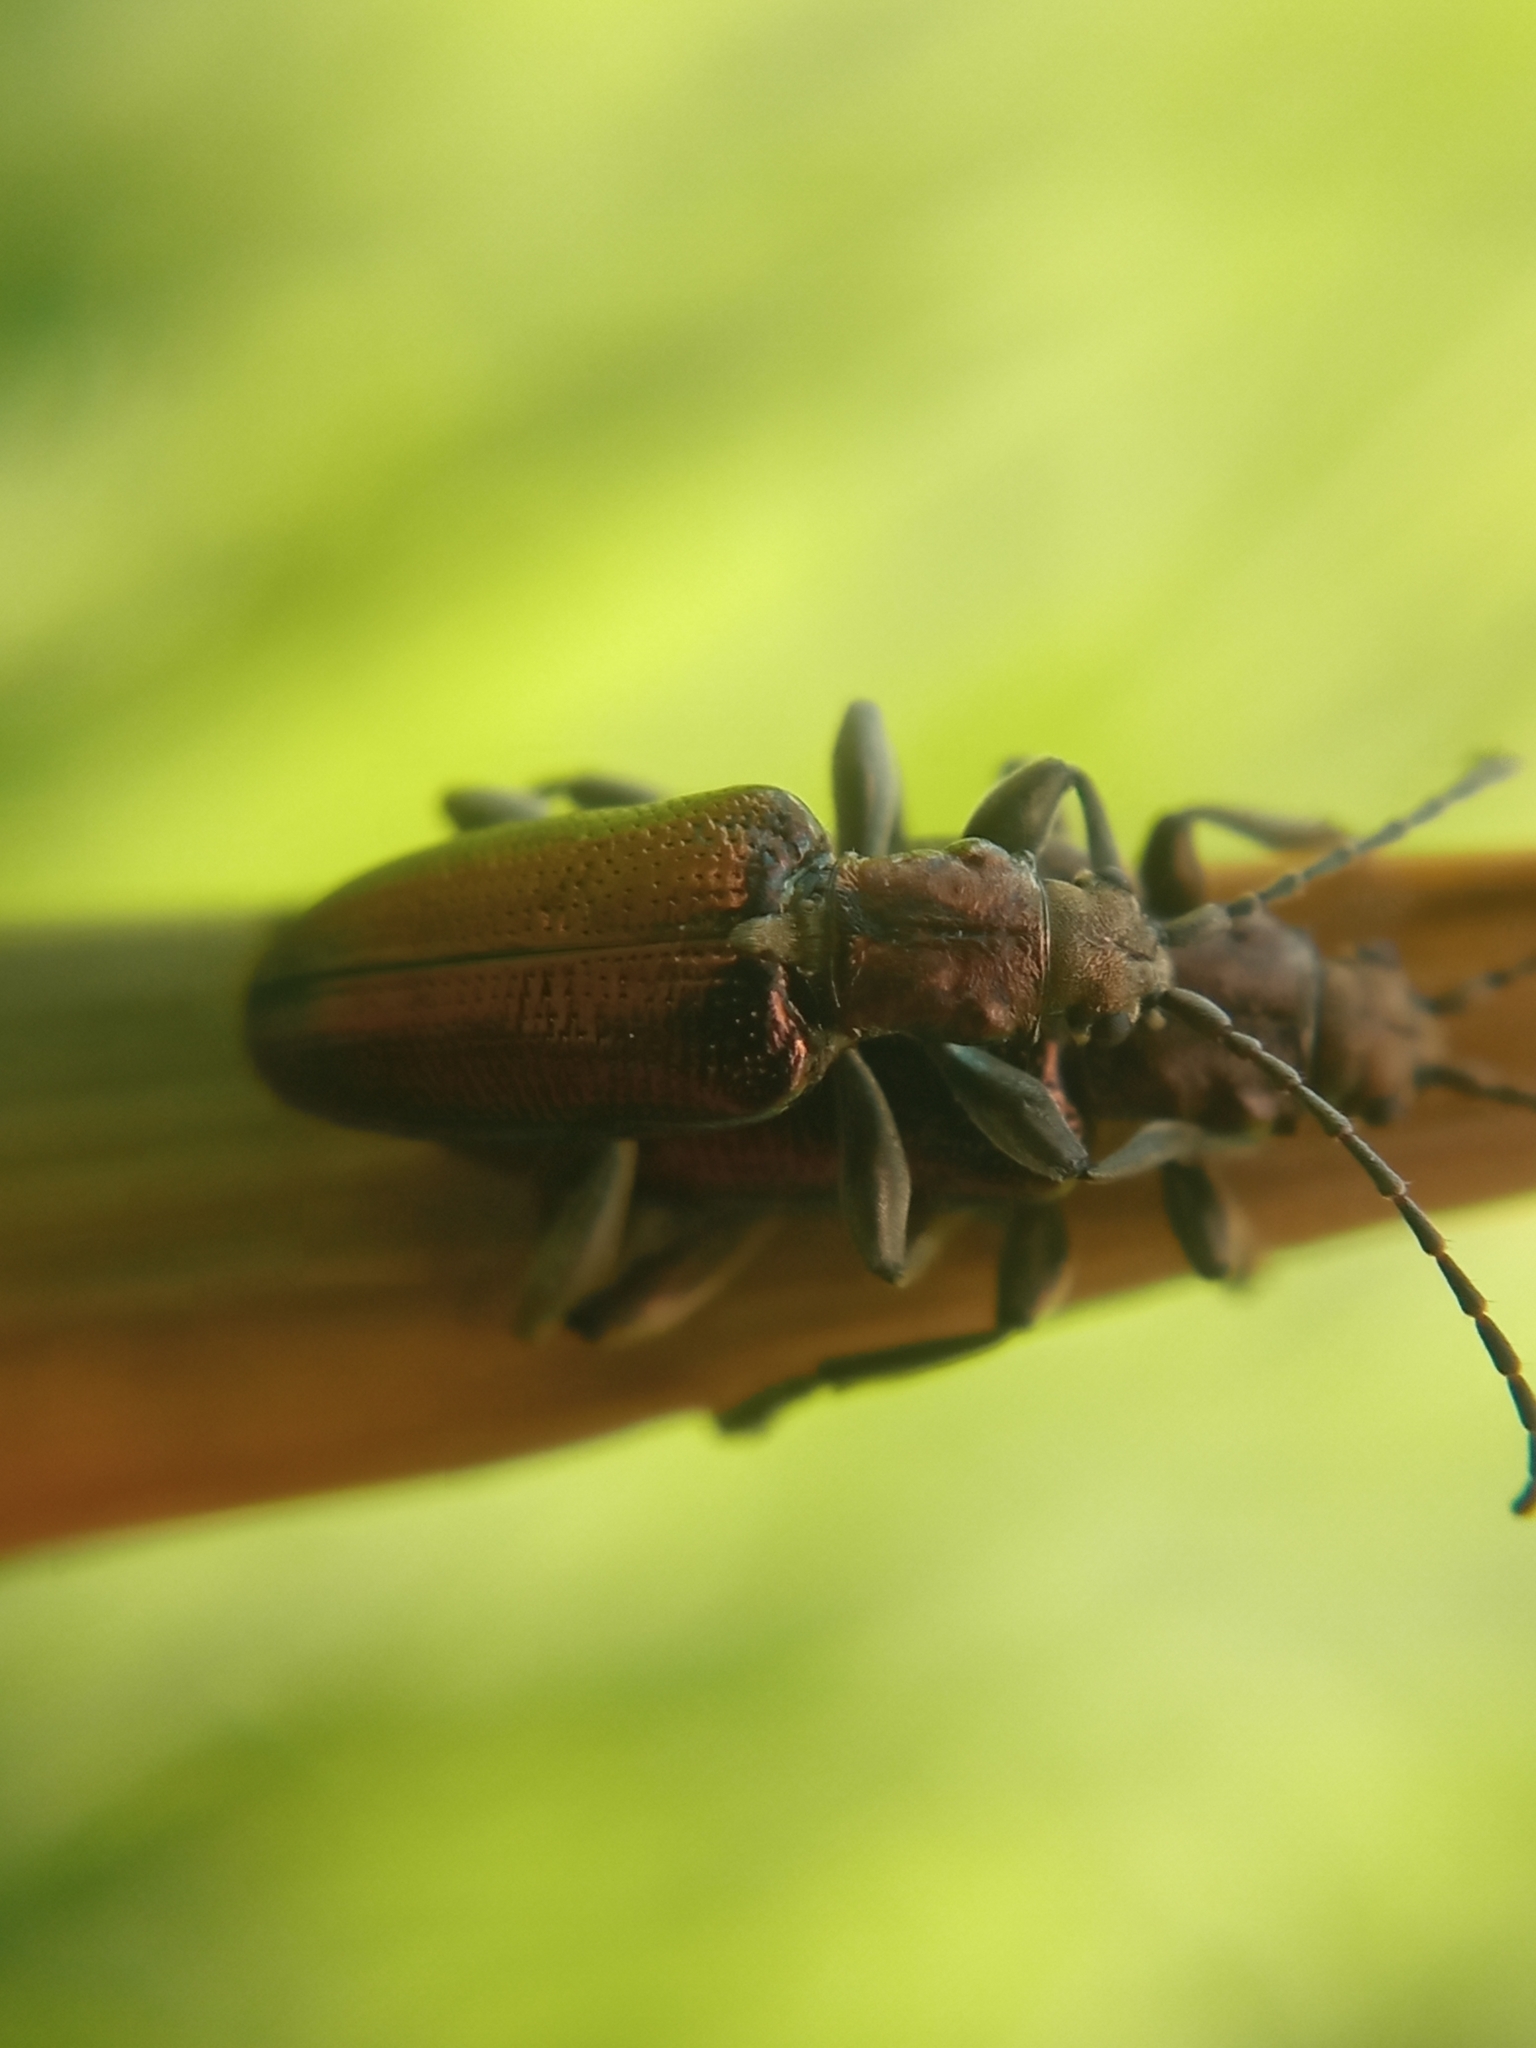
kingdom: Animalia
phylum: Arthropoda
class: Insecta
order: Coleoptera
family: Chrysomelidae
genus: Plateumaris
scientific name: Plateumaris sericea
